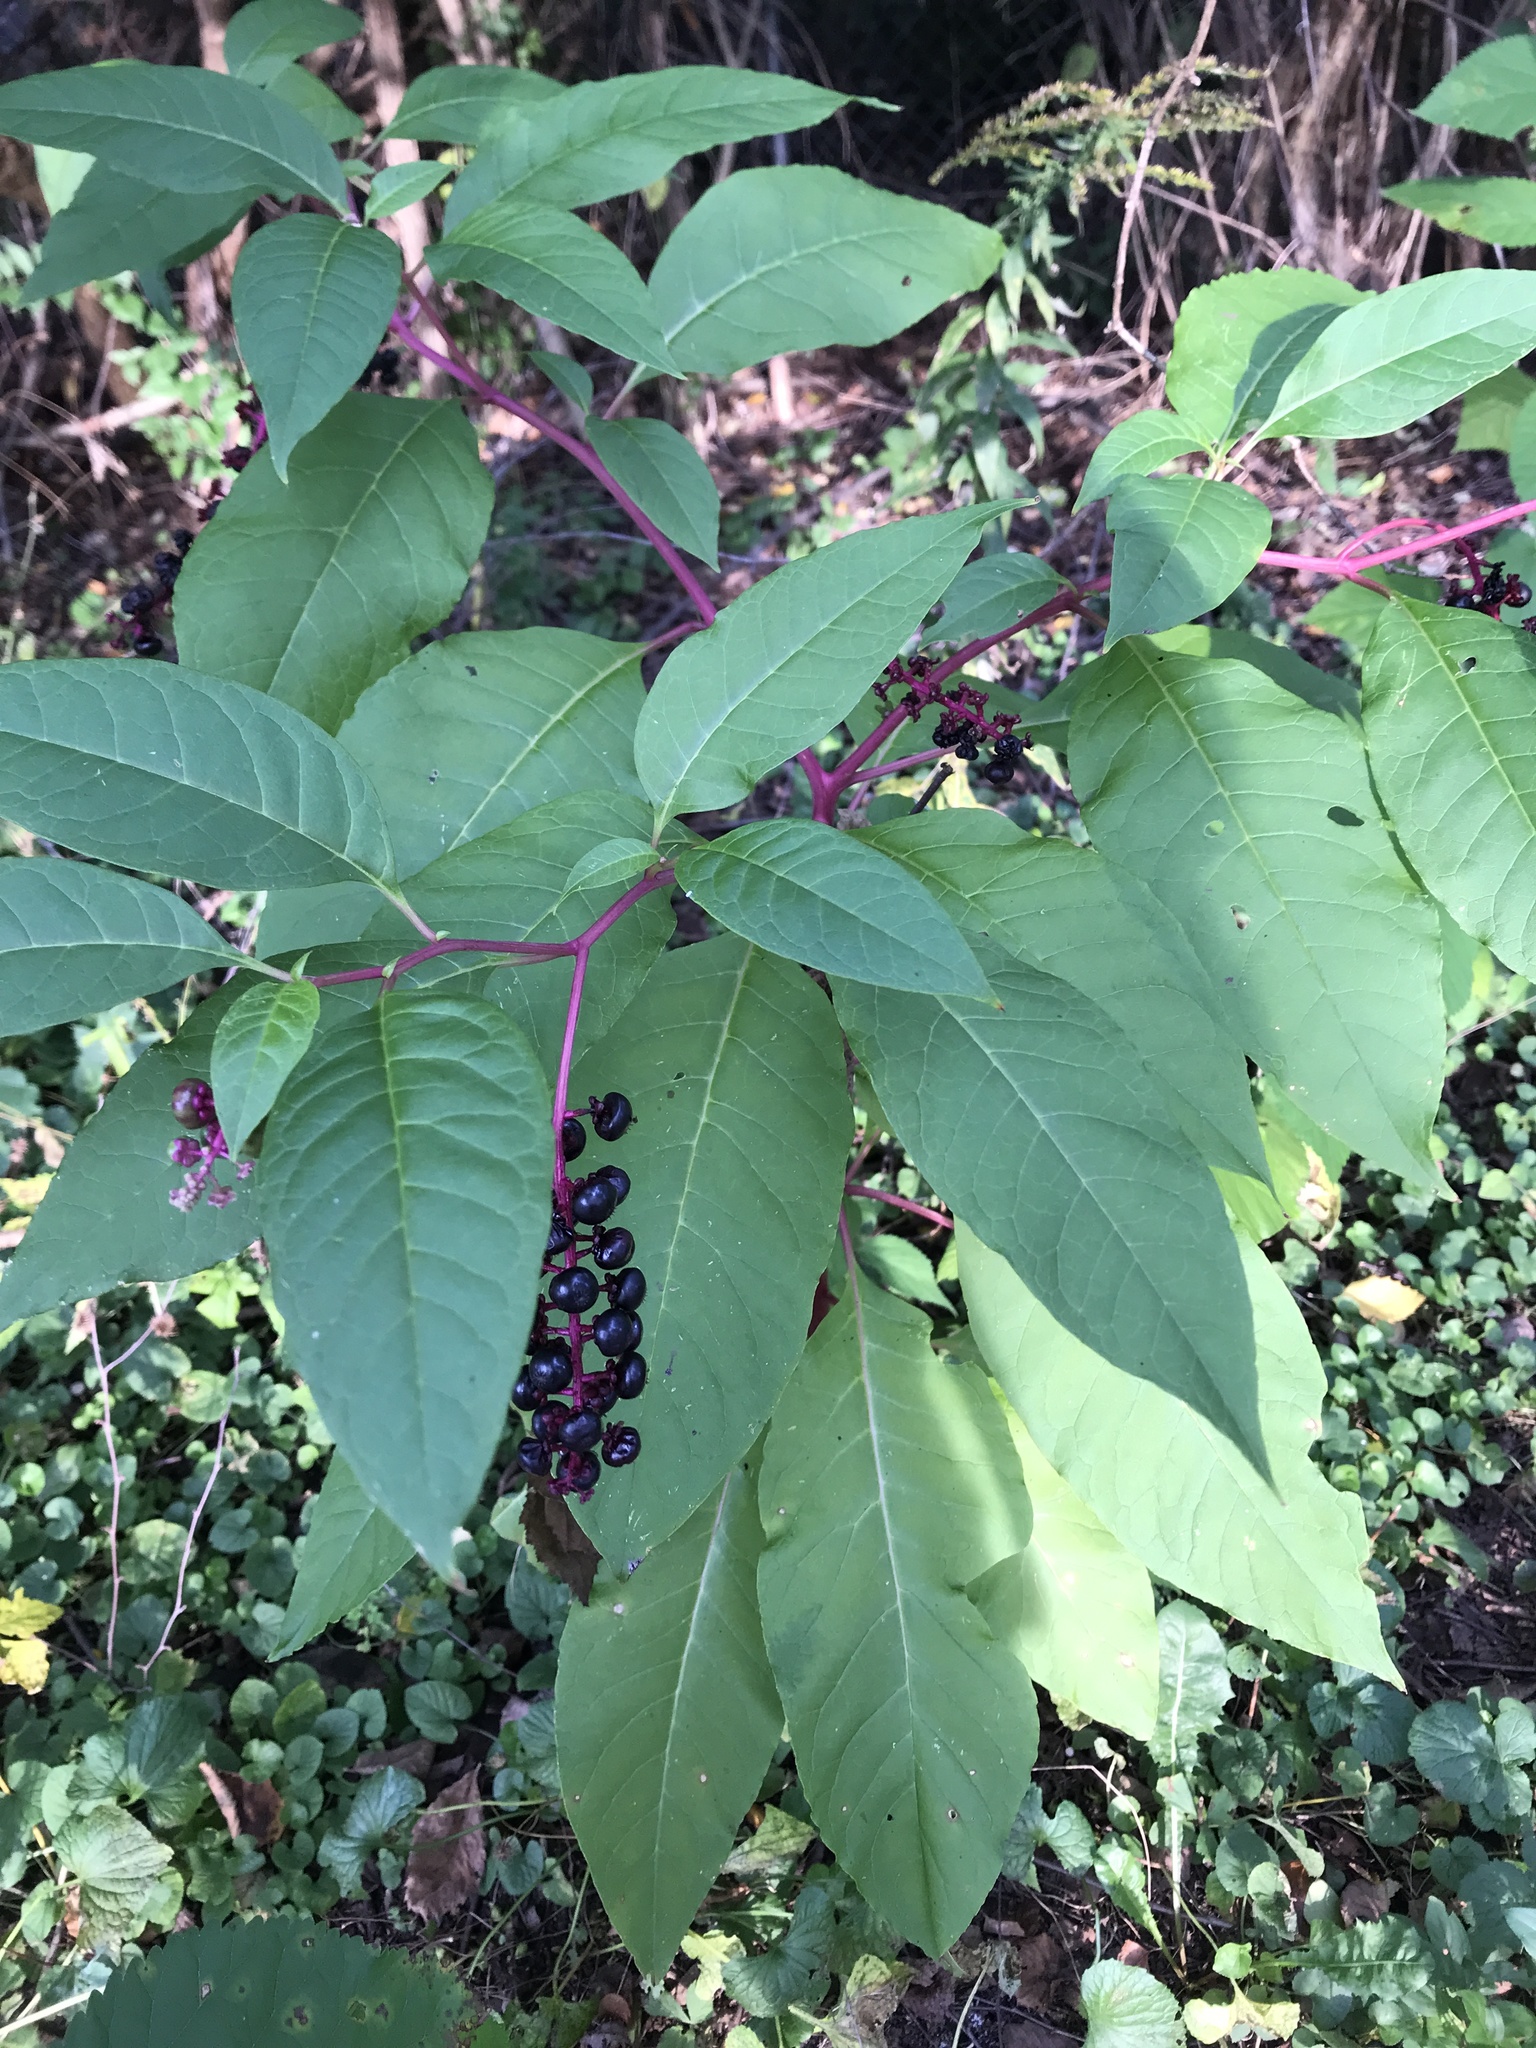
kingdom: Plantae
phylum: Tracheophyta
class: Magnoliopsida
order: Caryophyllales
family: Phytolaccaceae
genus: Phytolacca
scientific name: Phytolacca americana
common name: American pokeweed
